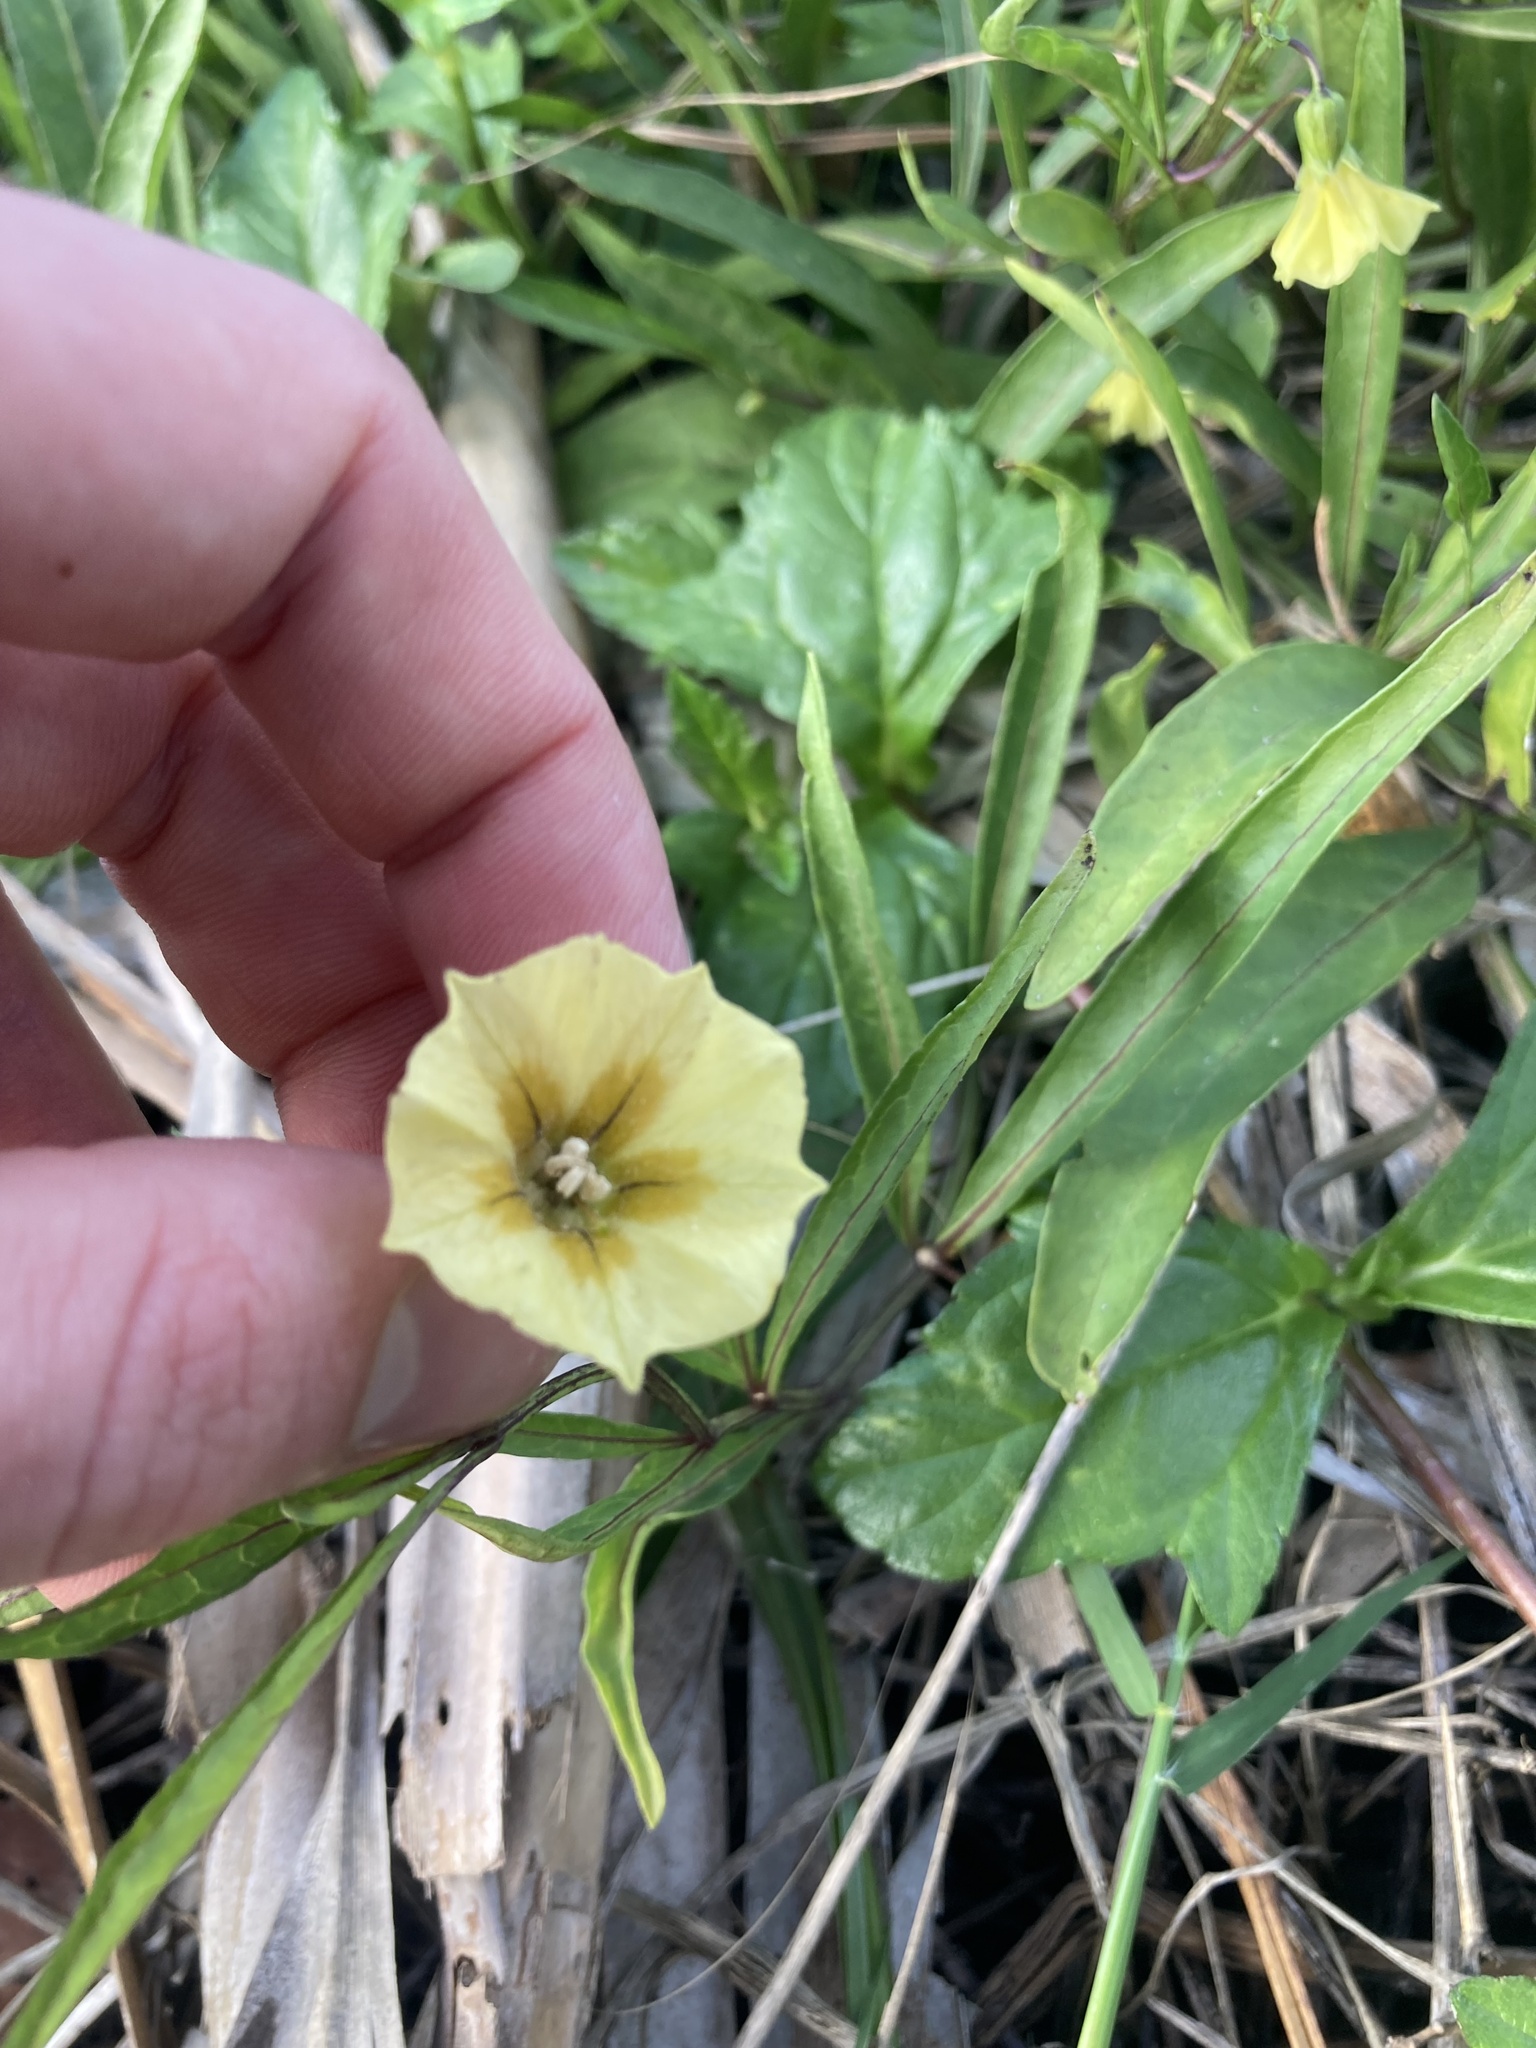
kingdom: Plantae
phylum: Tracheophyta
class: Magnoliopsida
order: Solanales
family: Solanaceae
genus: Physalis
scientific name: Physalis angustifolia
